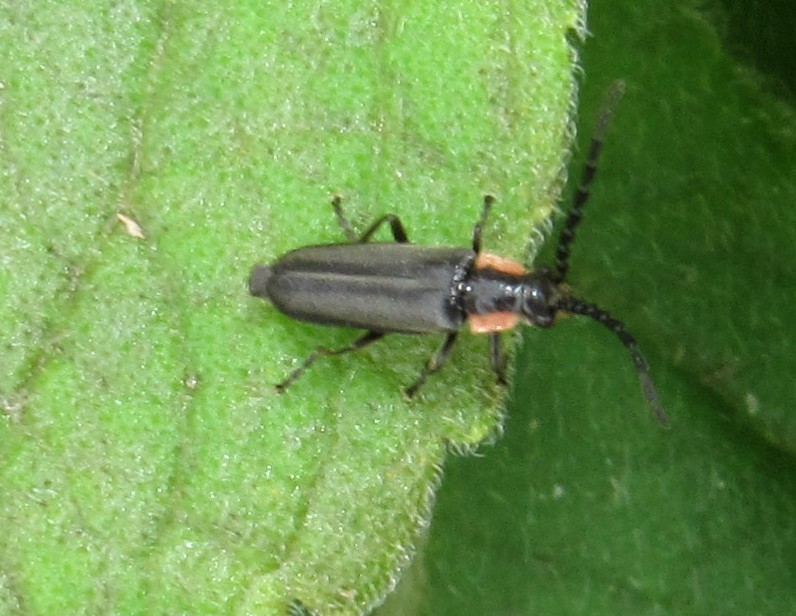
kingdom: Animalia
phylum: Arthropoda
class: Insecta
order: Coleoptera
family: Cantharidae
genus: Discodon
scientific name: Discodon
